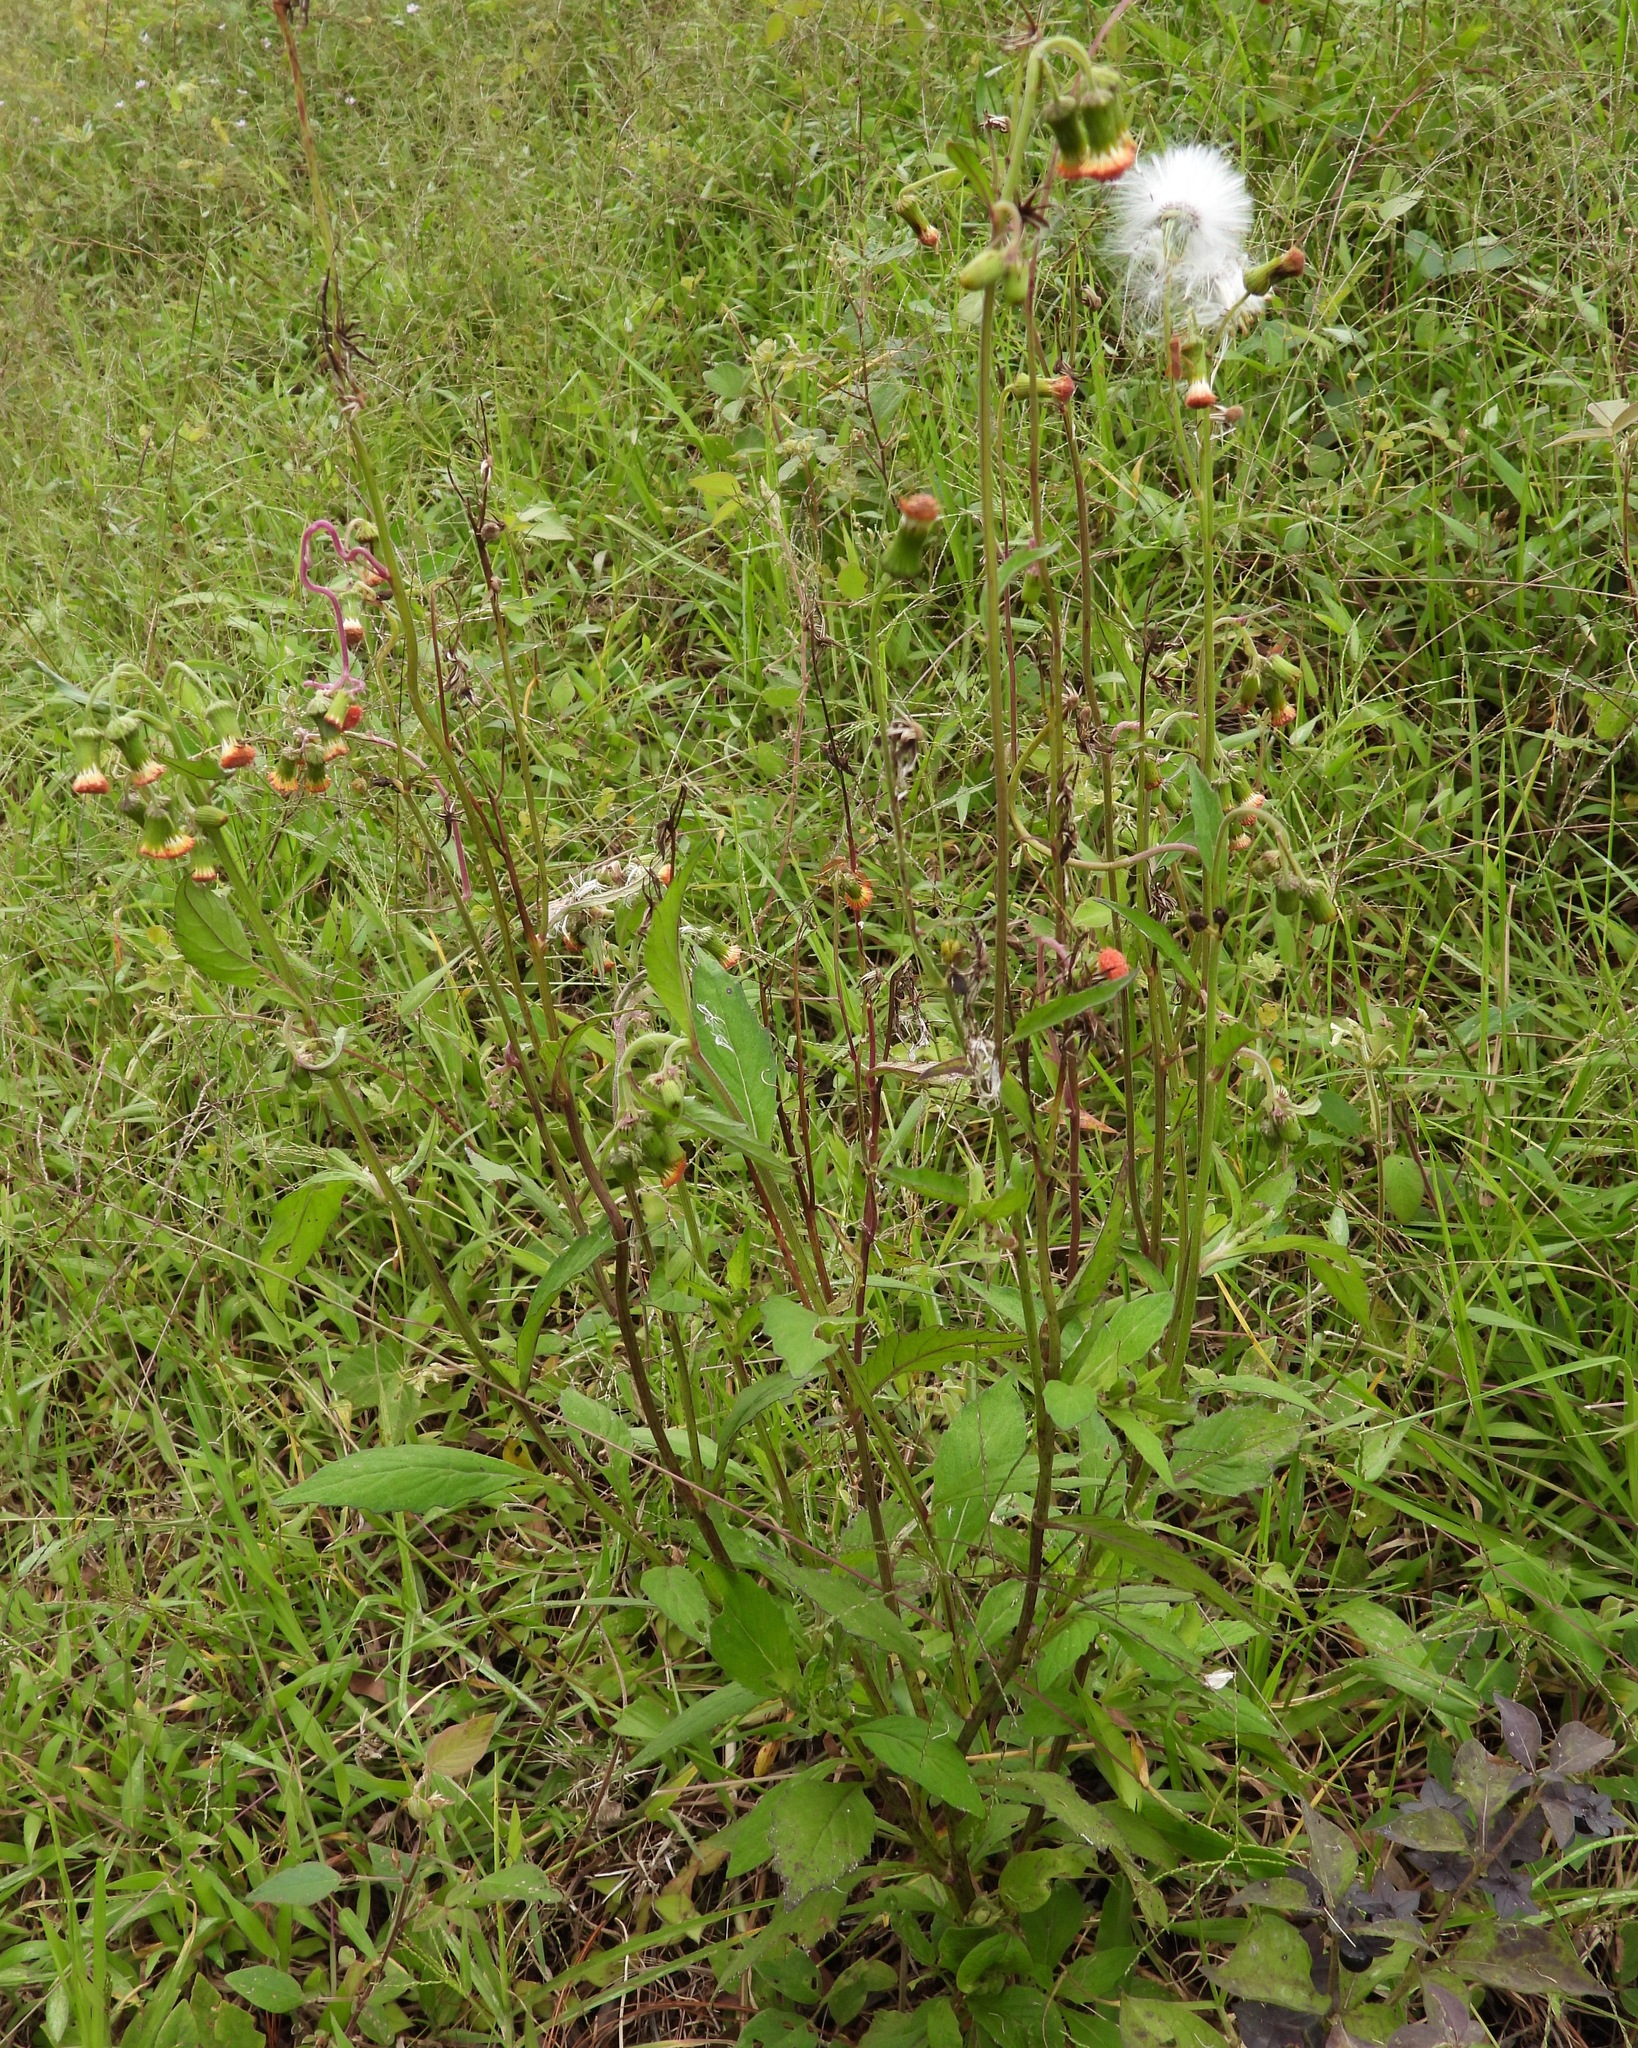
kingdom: Plantae
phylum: Tracheophyta
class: Magnoliopsida
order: Asterales
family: Asteraceae
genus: Crassocephalum
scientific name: Crassocephalum crepidioides
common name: Redflower ragleaf
